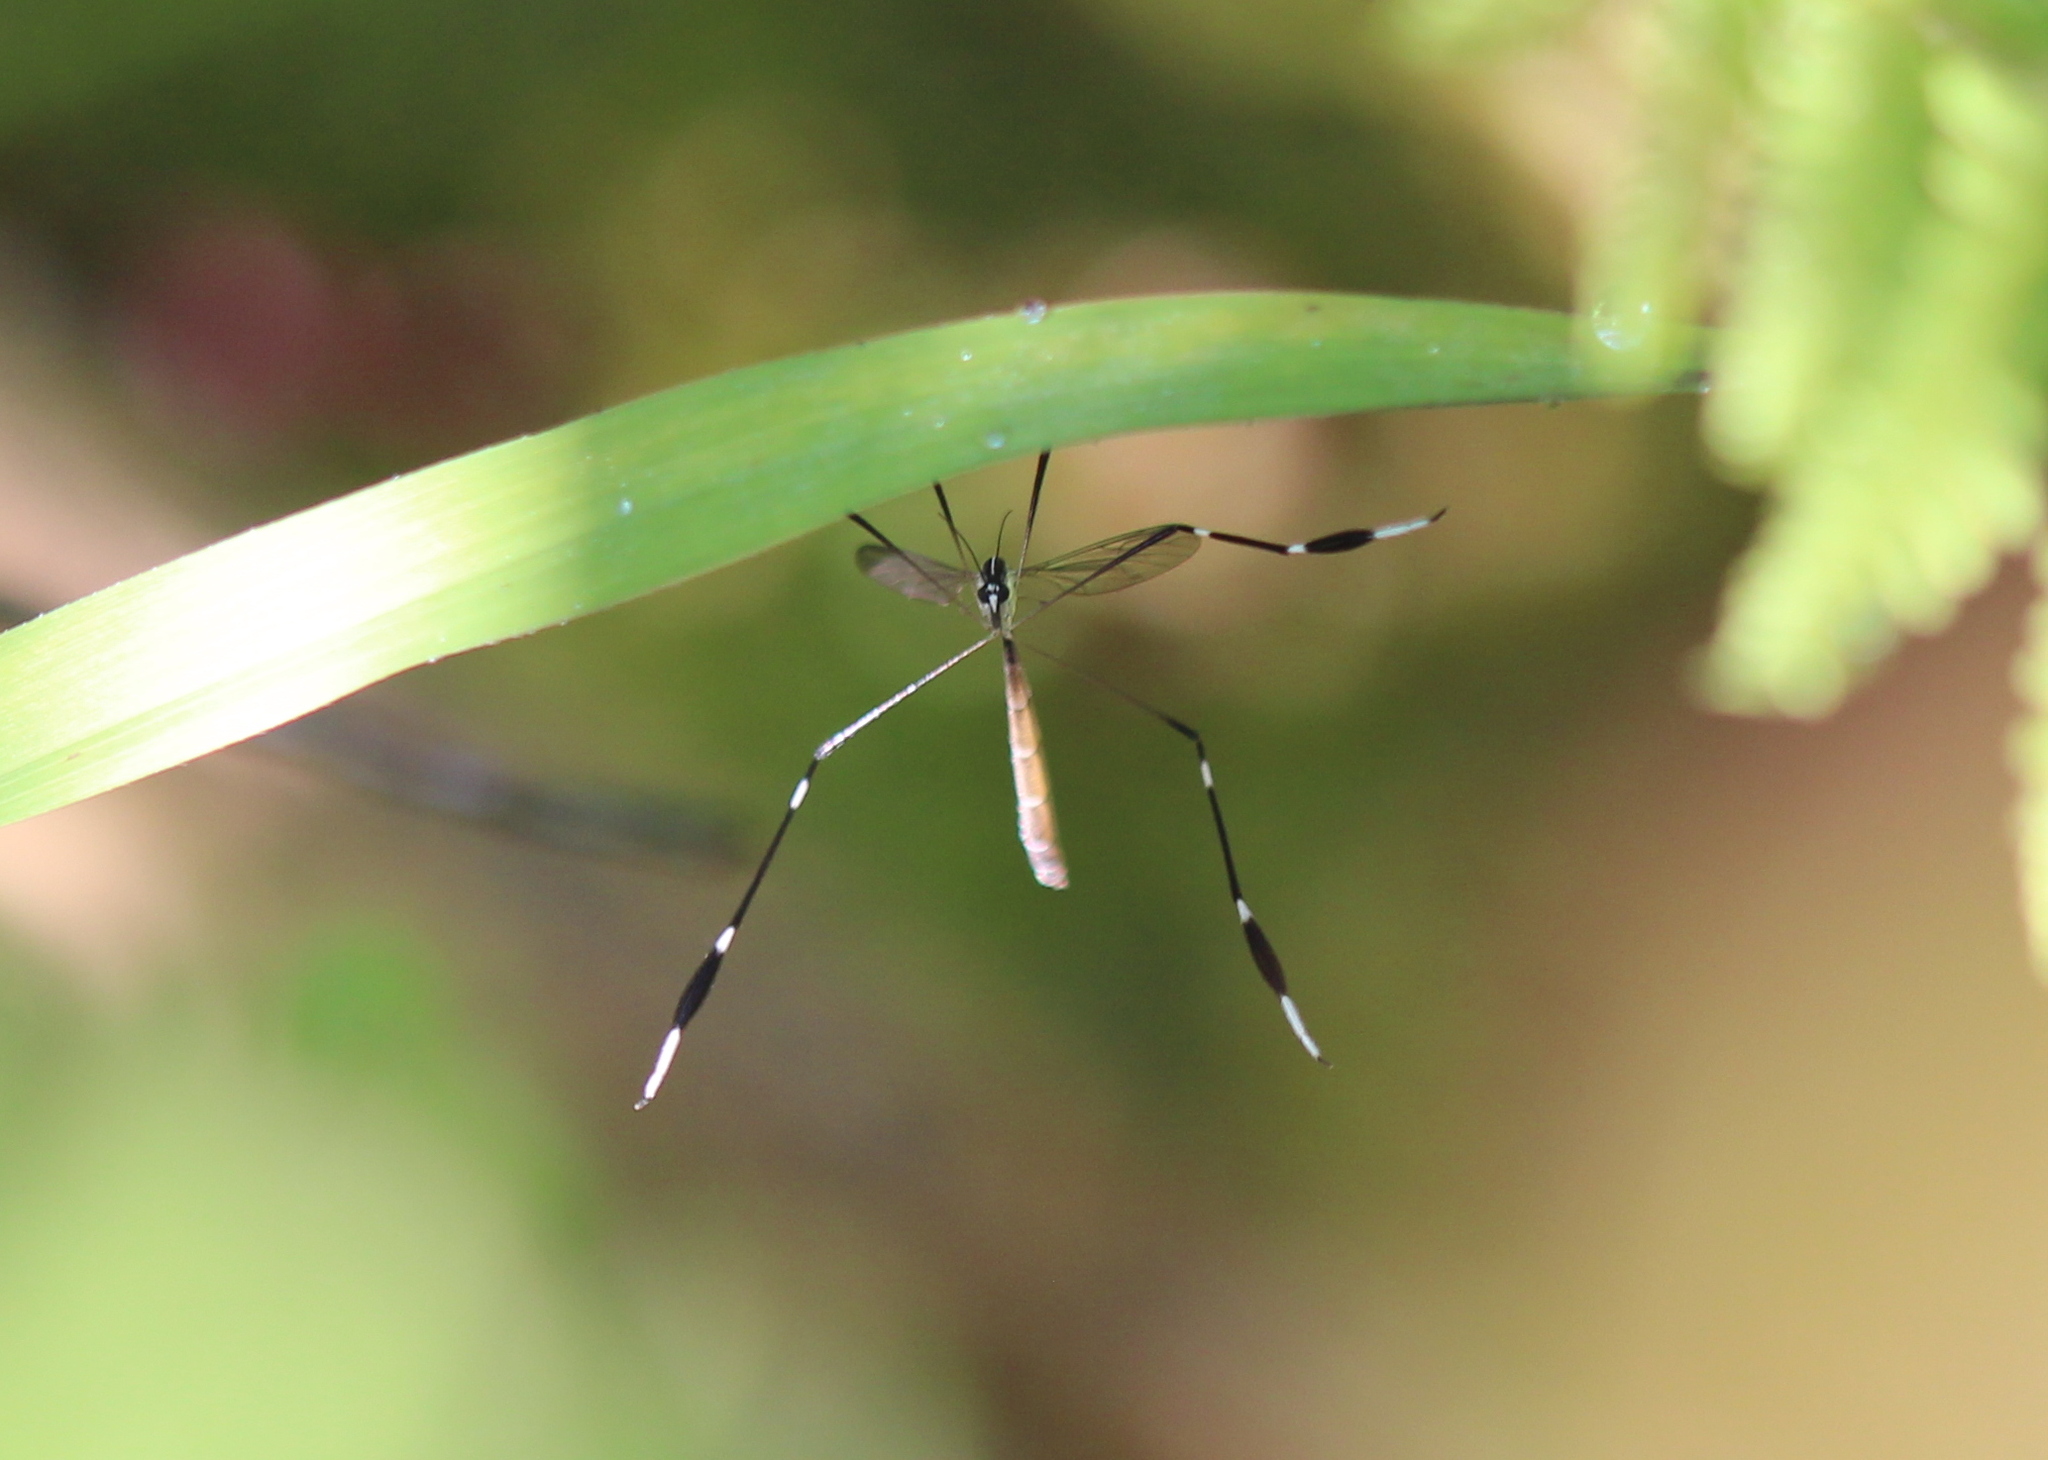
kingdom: Animalia
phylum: Arthropoda
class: Insecta
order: Diptera
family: Ptychopteridae
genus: Bittacomorpha
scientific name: Bittacomorpha clavipes
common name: Eastern phantom crane fly
